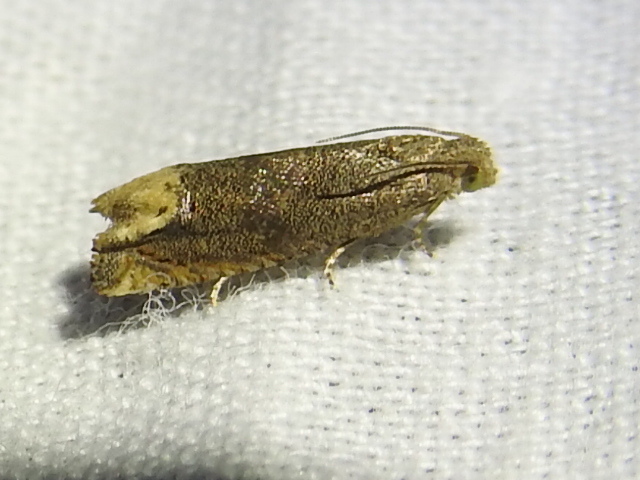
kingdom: Animalia
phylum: Arthropoda
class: Insecta
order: Lepidoptera
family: Tortricidae
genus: Epiblema
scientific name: Epiblema strenuana
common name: Ragweed borer moth
